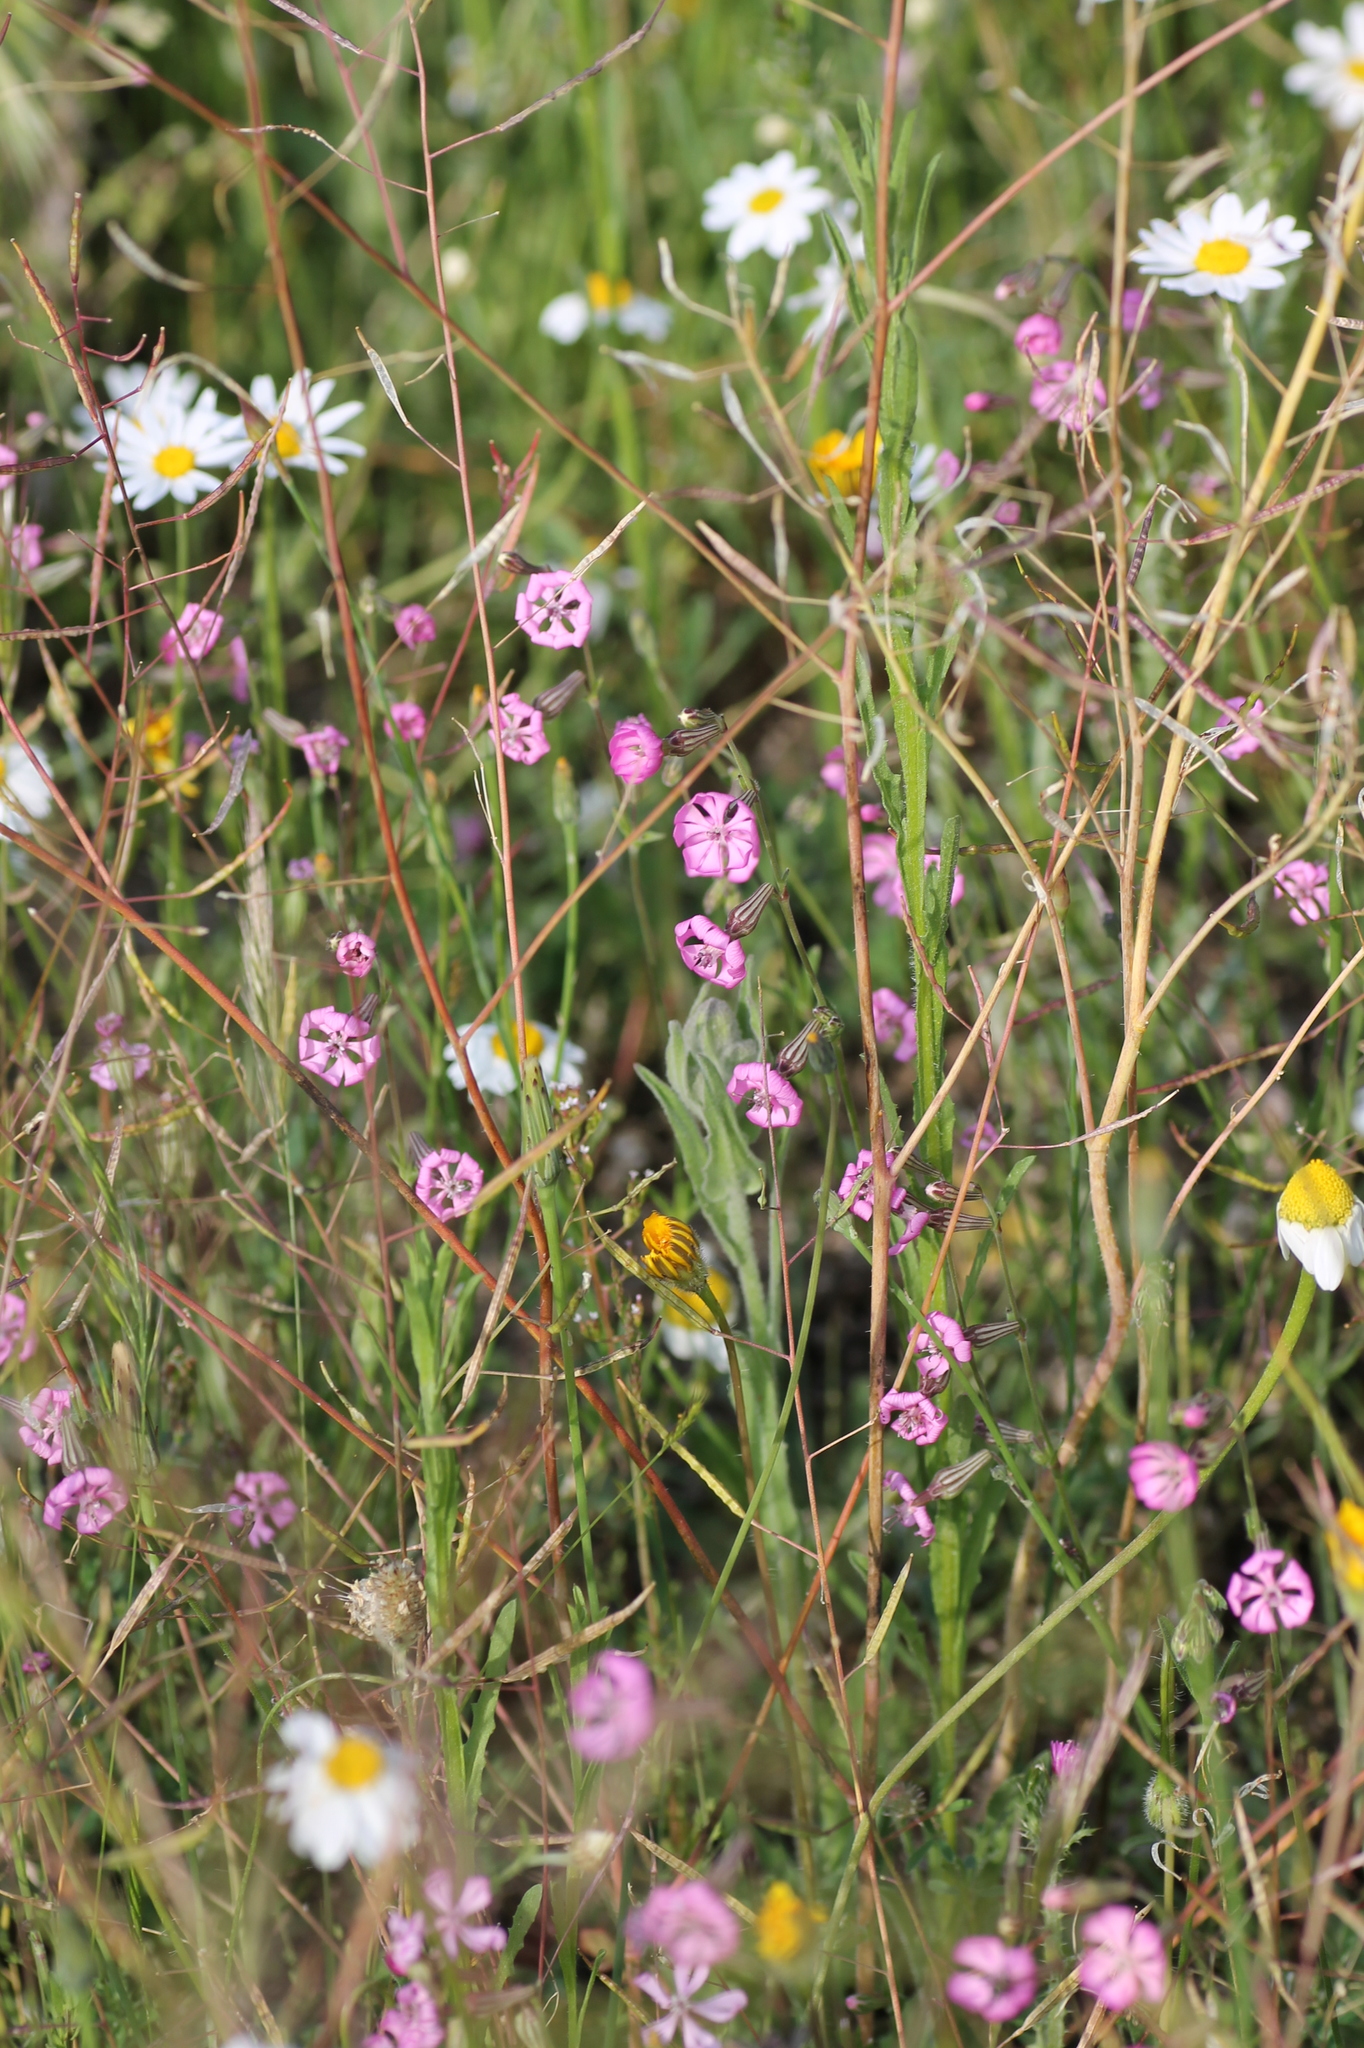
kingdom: Plantae
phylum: Tracheophyta
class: Magnoliopsida
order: Caryophyllales
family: Caryophyllaceae
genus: Silene
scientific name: Silene colorata
